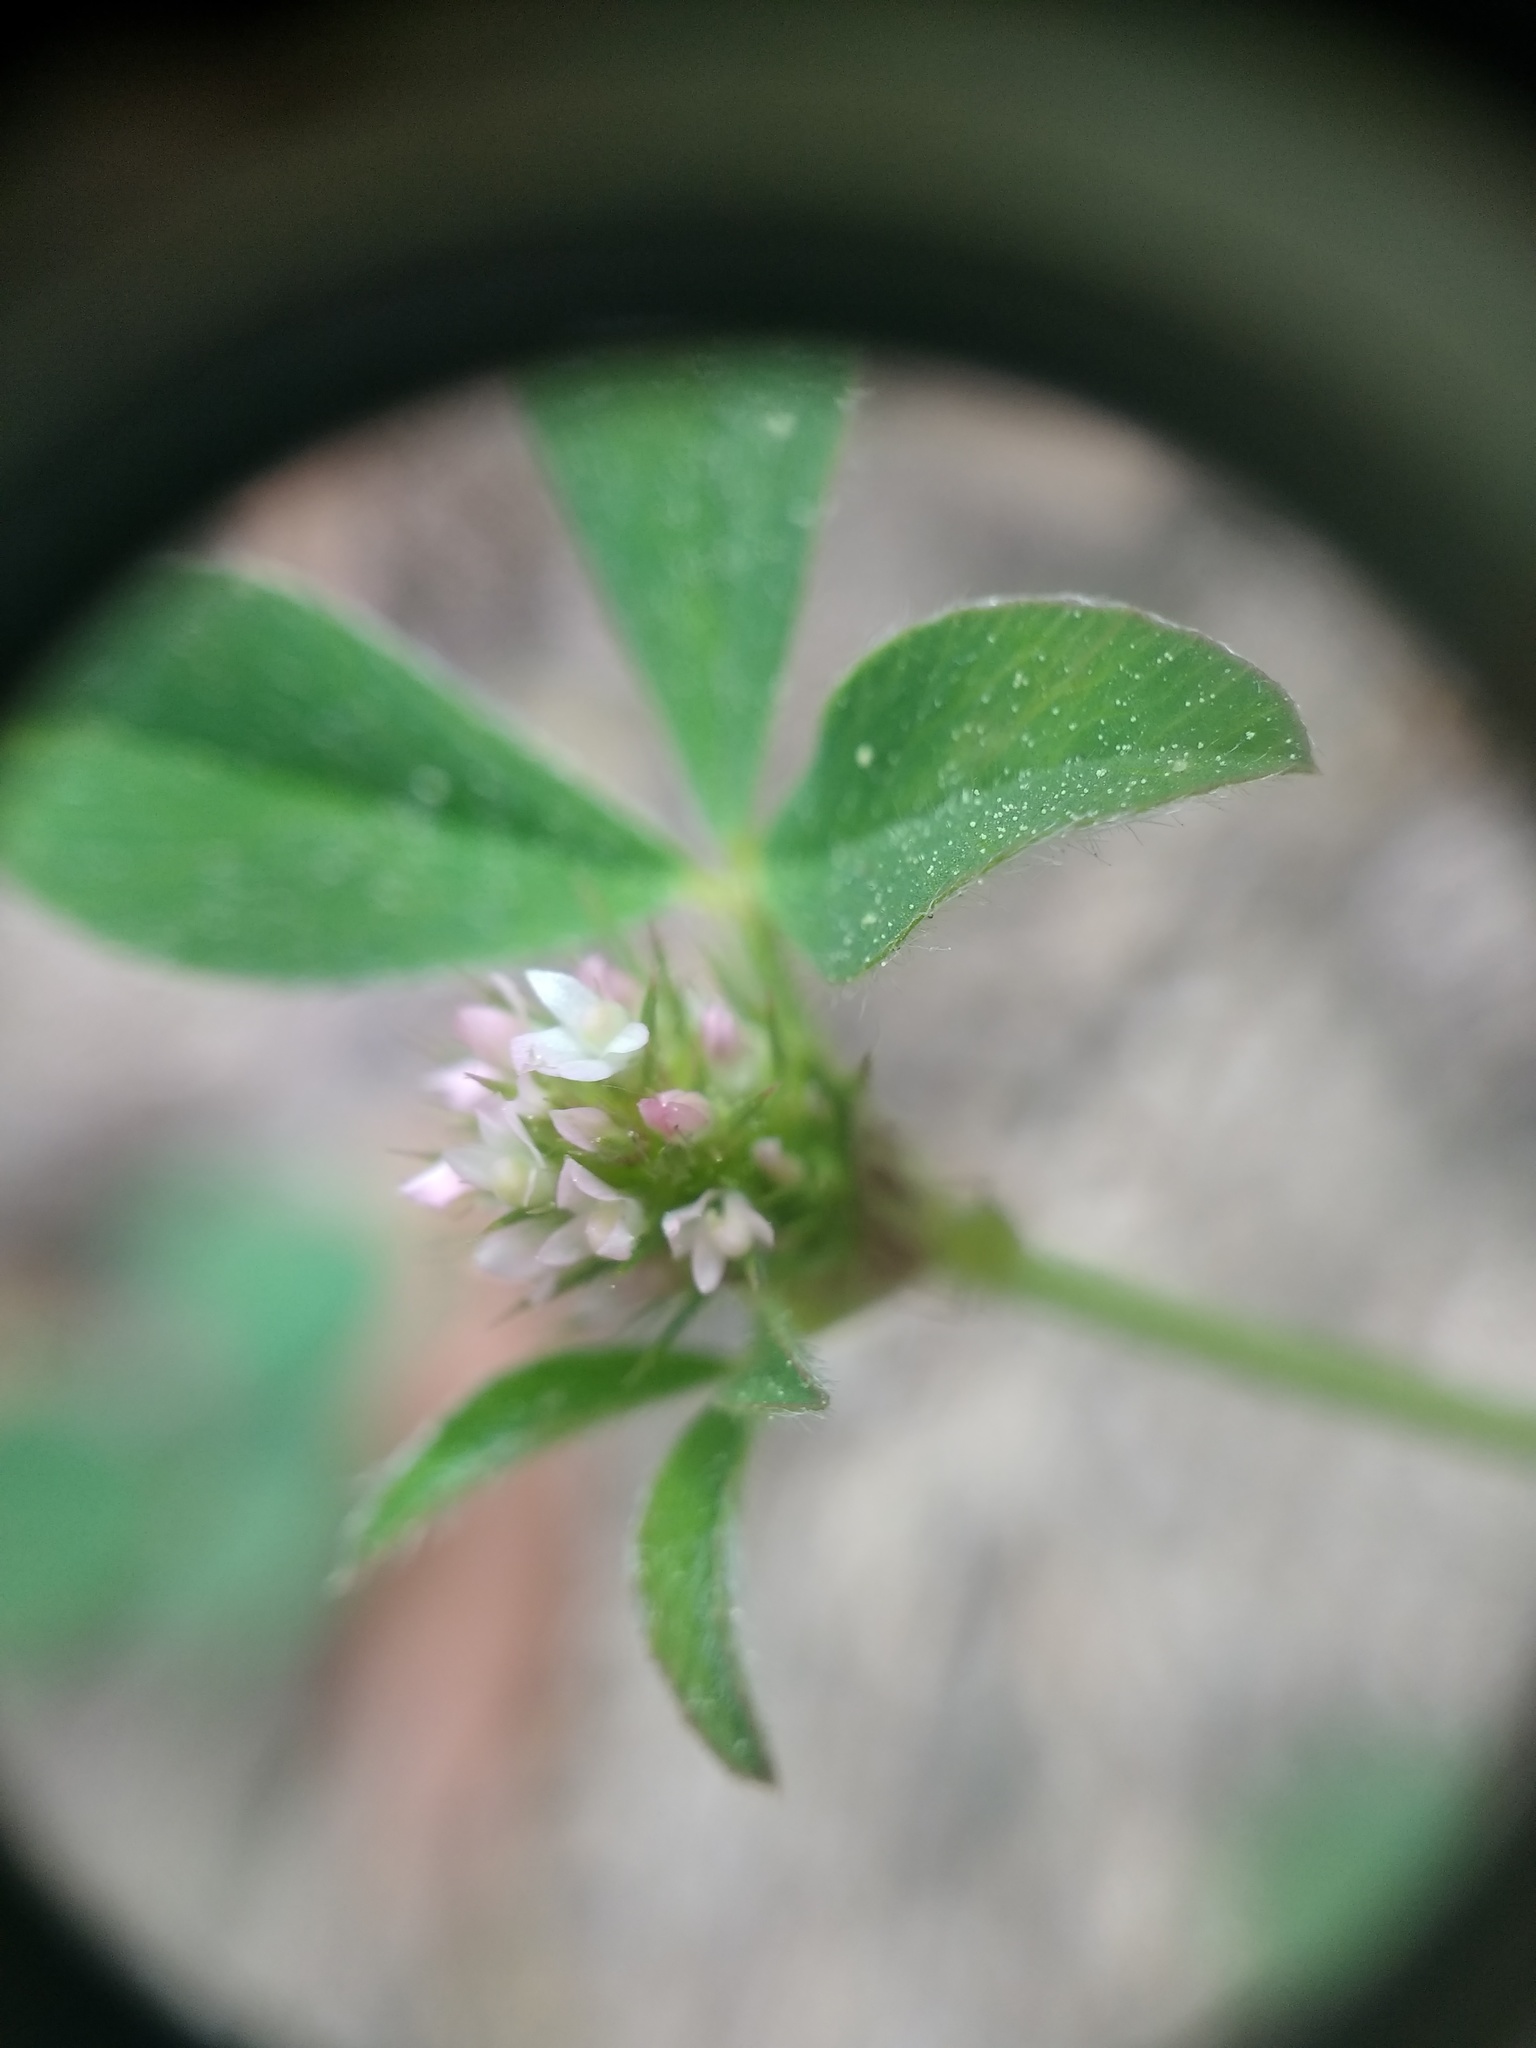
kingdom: Plantae
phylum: Tracheophyta
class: Magnoliopsida
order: Fabales
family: Fabaceae
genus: Trifolium
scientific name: Trifolium scabrum
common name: Rough clover
